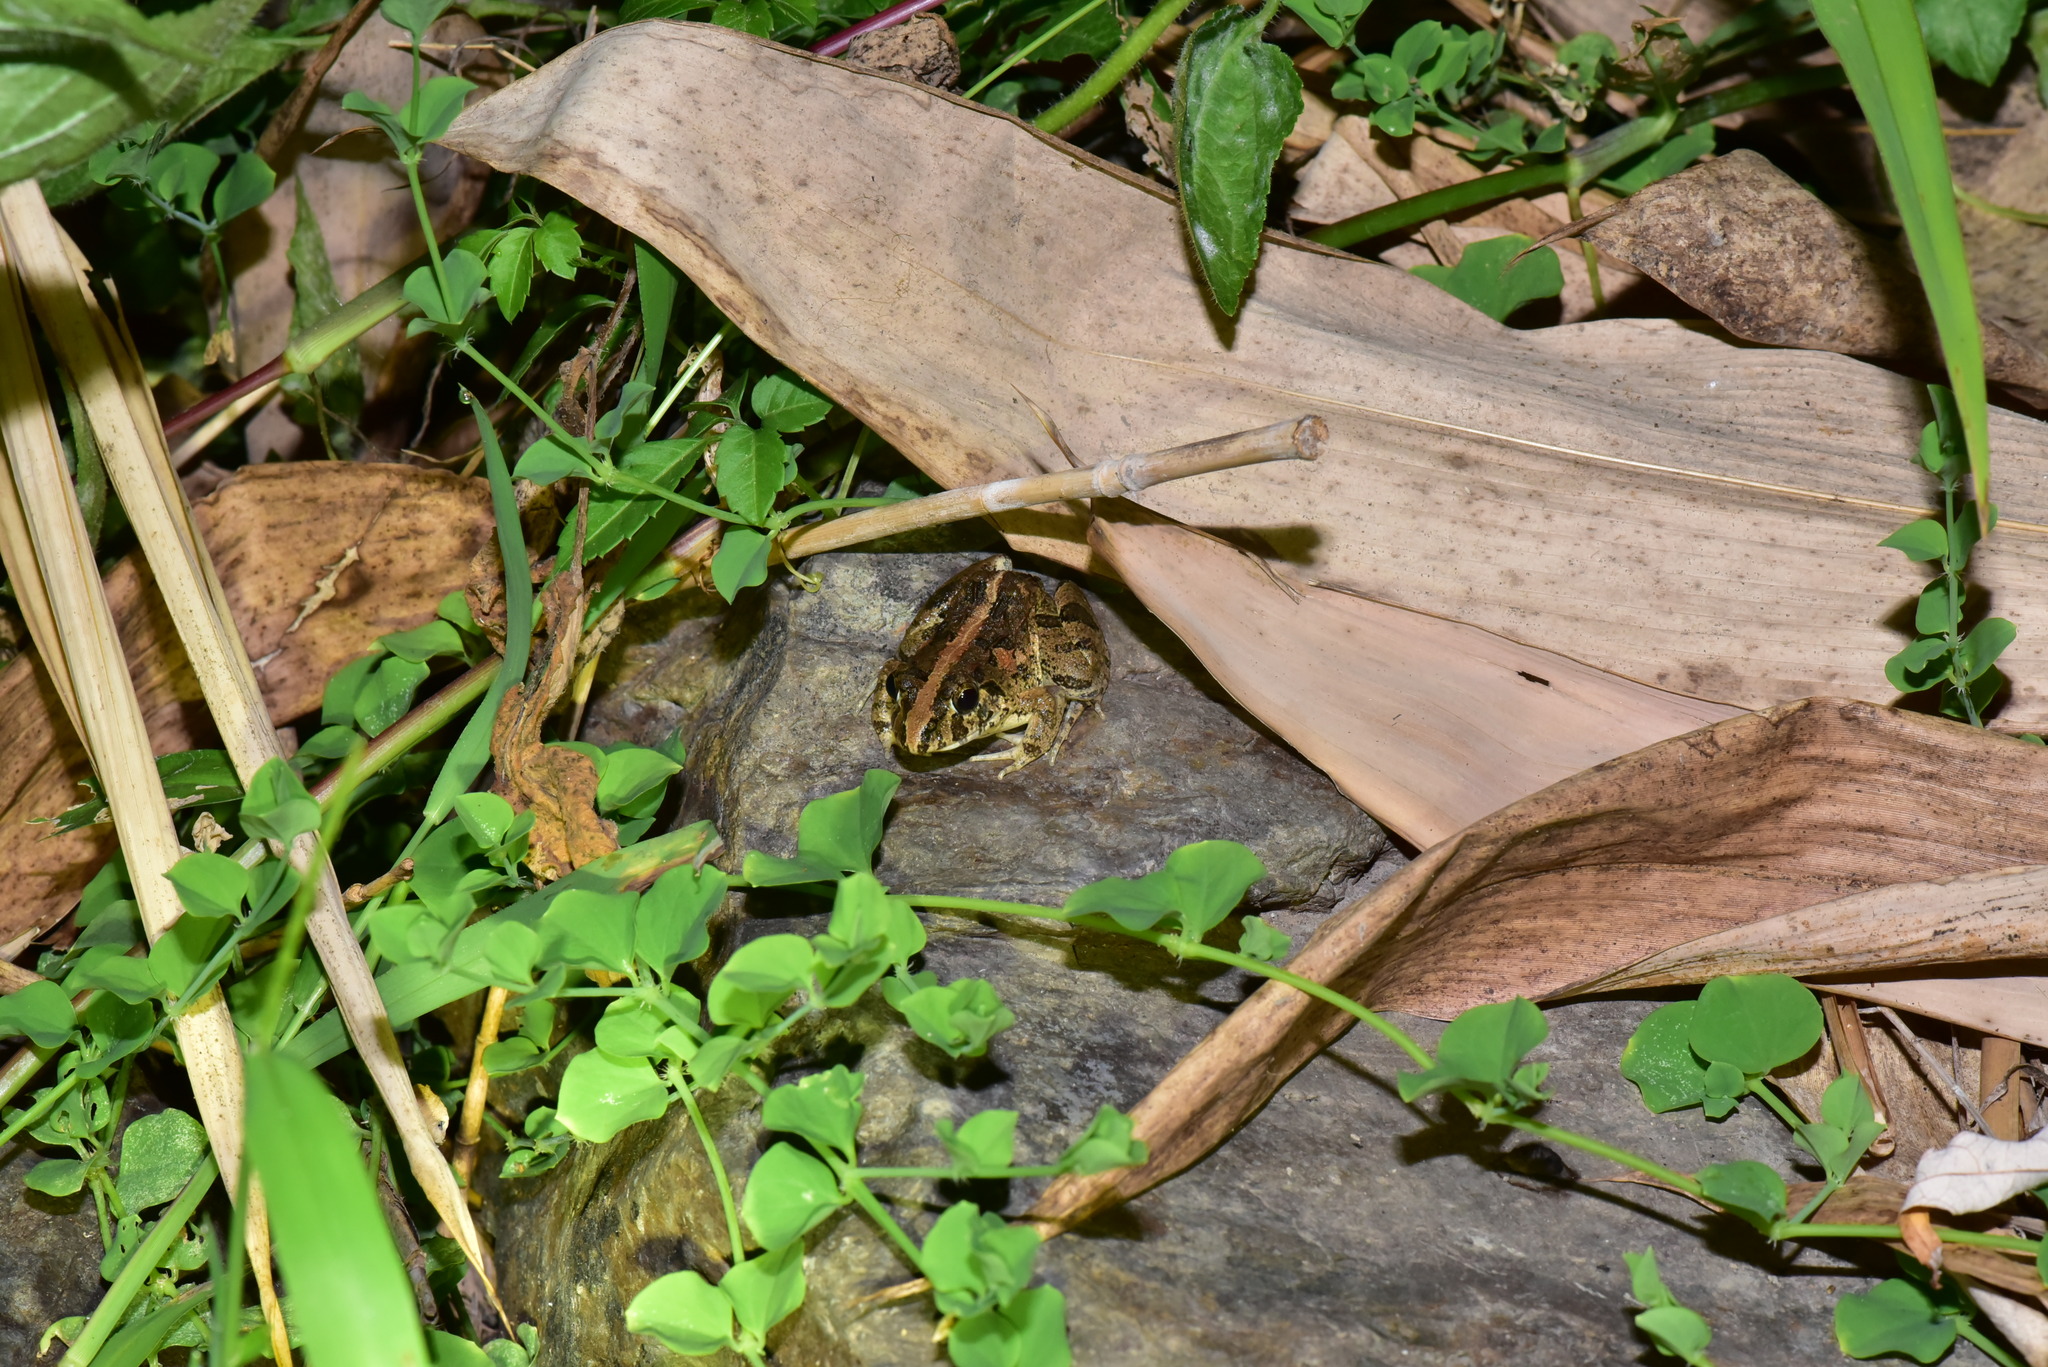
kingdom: Animalia
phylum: Chordata
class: Amphibia
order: Anura
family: Dicroglossidae
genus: Fejervarya
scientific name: Fejervarya limnocharis
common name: Asian grass frog/common pond frog/field frog/grass frog/indian rice frog
